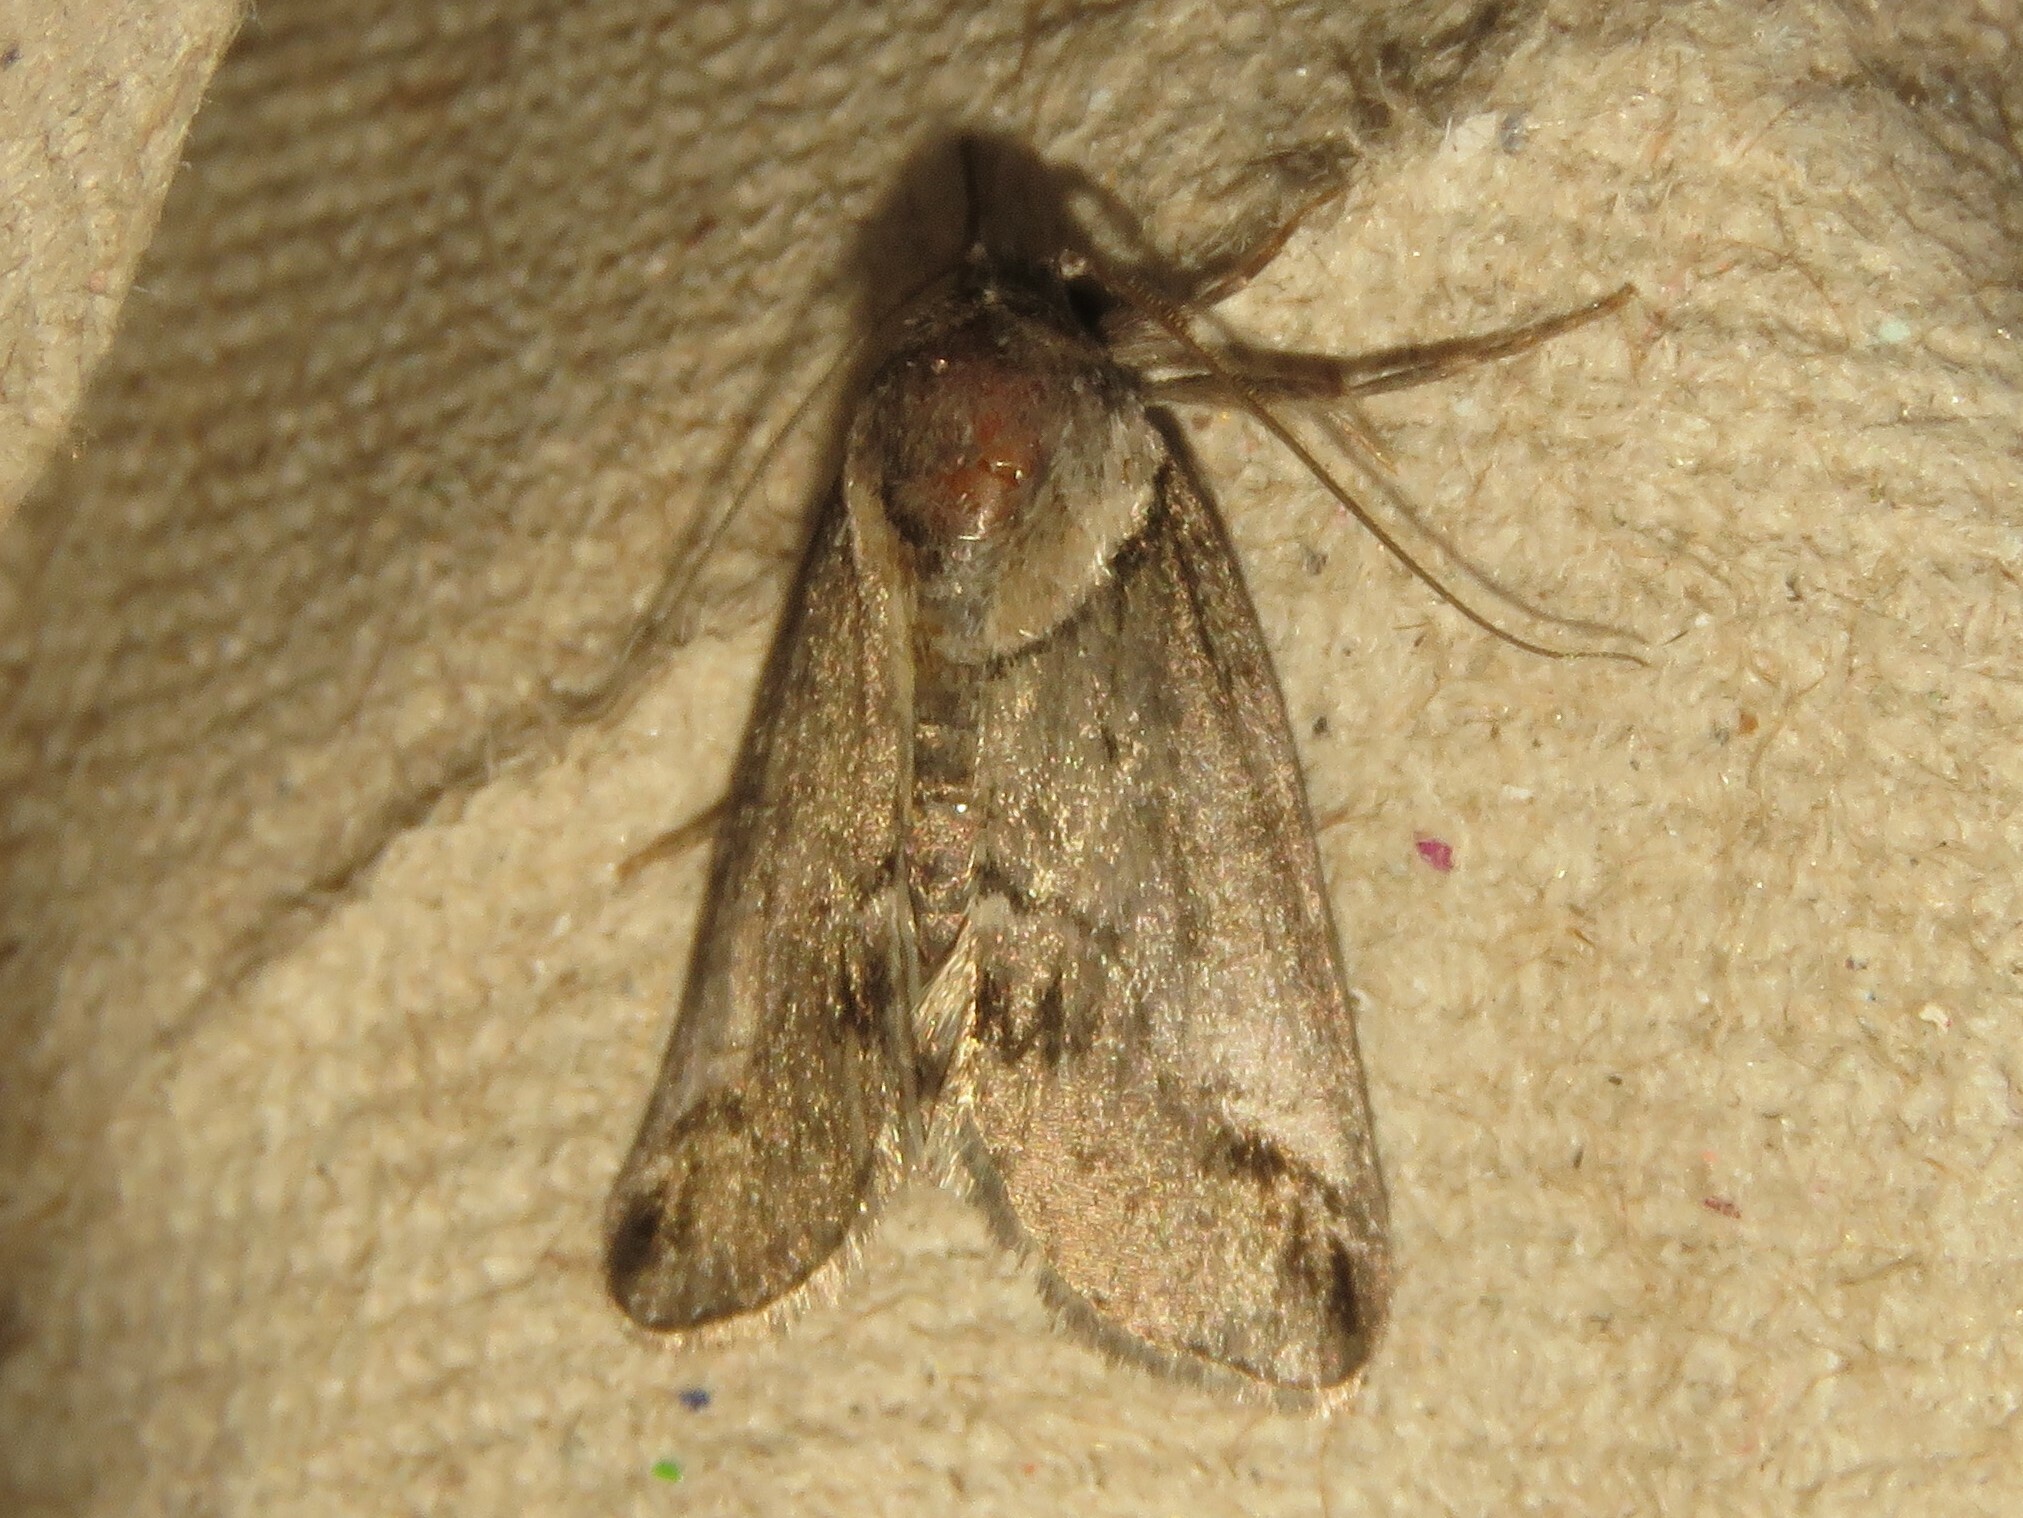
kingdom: Animalia
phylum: Arthropoda
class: Insecta
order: Lepidoptera
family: Nolidae
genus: Baileya
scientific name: Baileya australis
